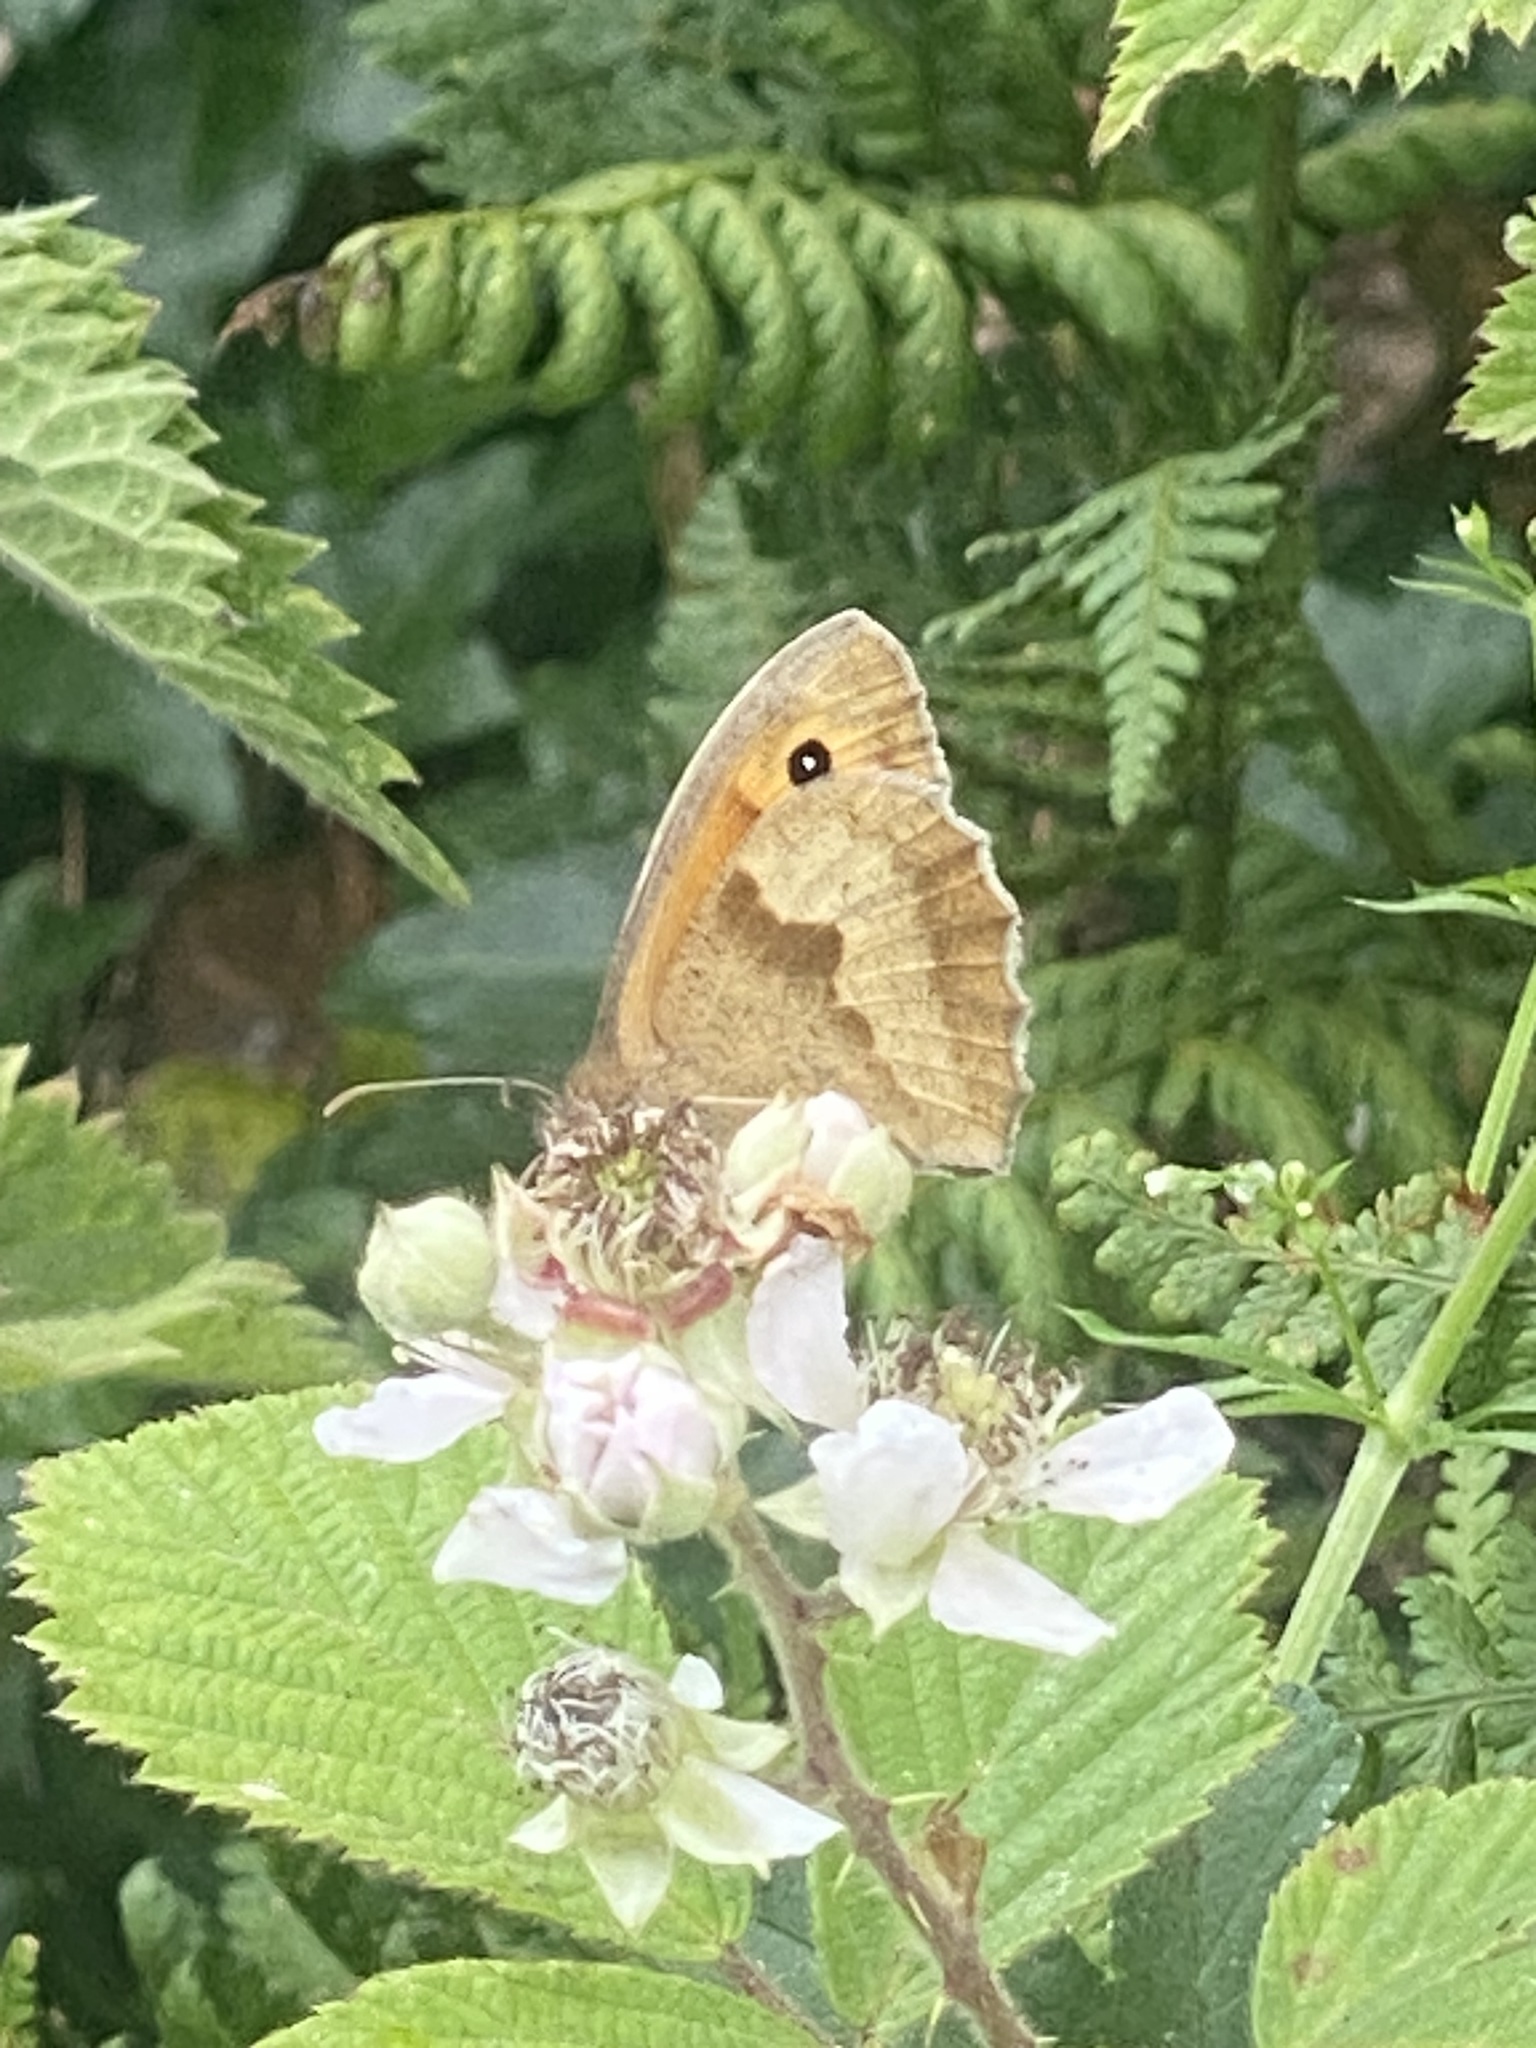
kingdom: Animalia
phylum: Arthropoda
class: Insecta
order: Lepidoptera
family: Nymphalidae
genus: Maniola
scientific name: Maniola jurtina
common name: Meadow brown
